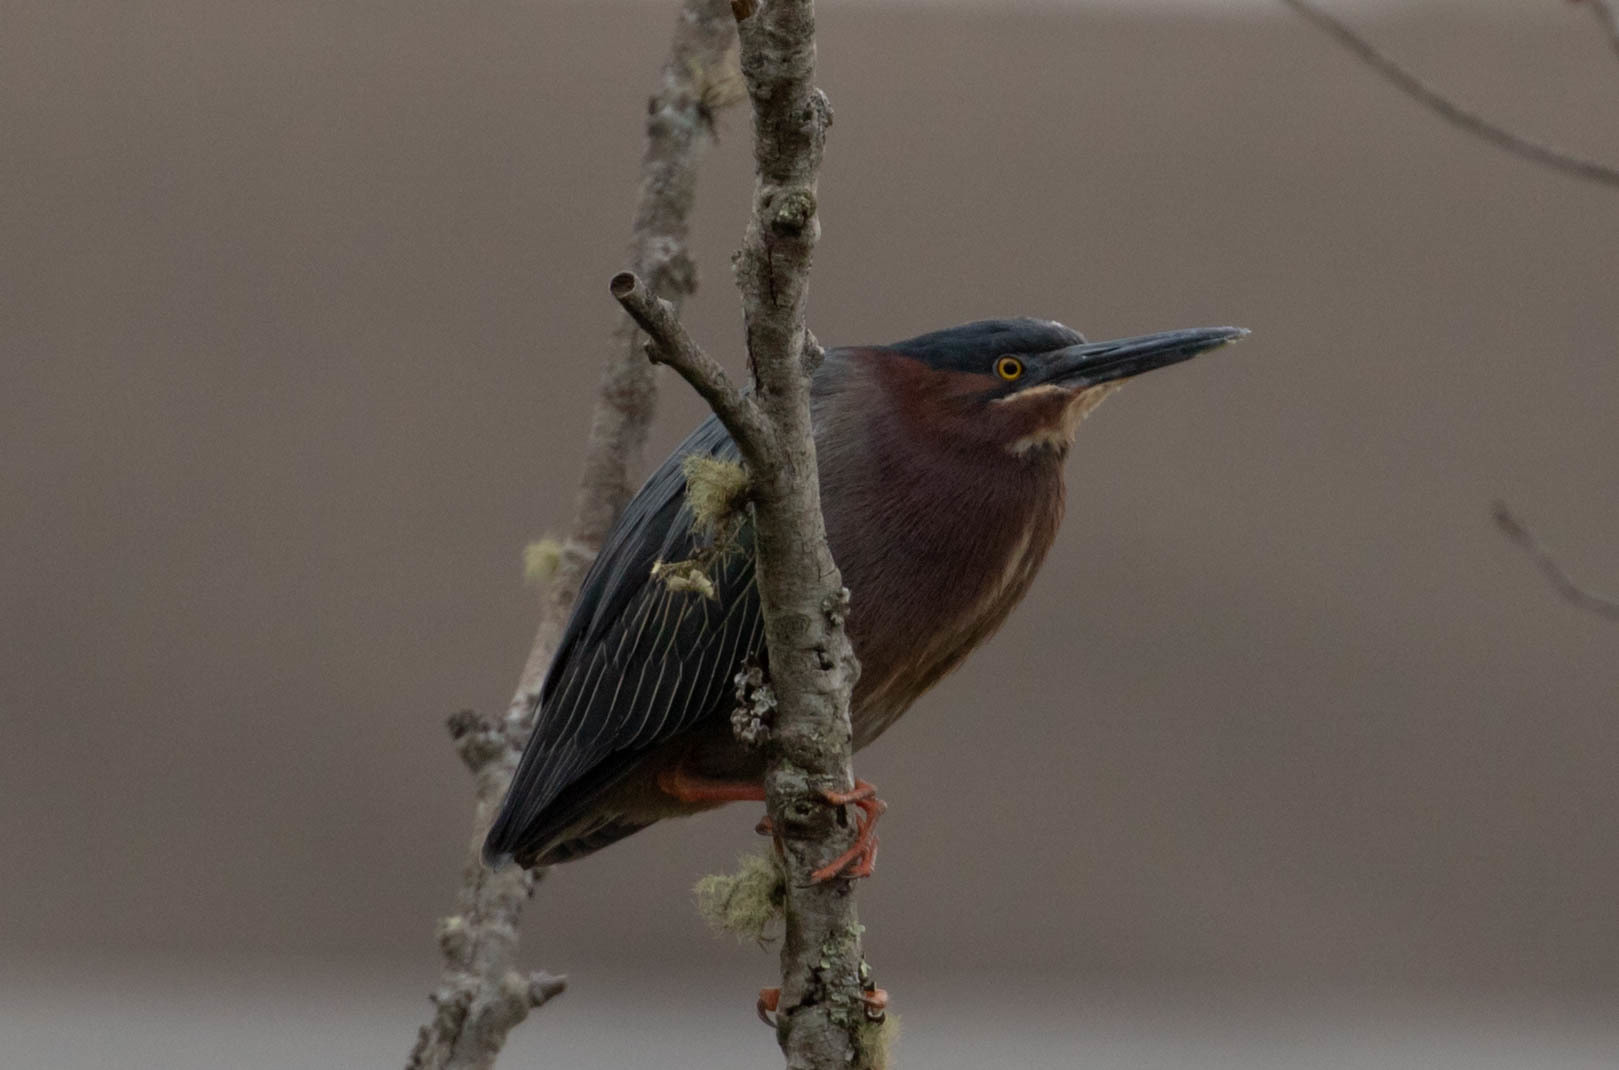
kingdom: Animalia
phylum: Chordata
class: Aves
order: Pelecaniformes
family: Ardeidae
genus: Butorides
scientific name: Butorides virescens
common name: Green heron
